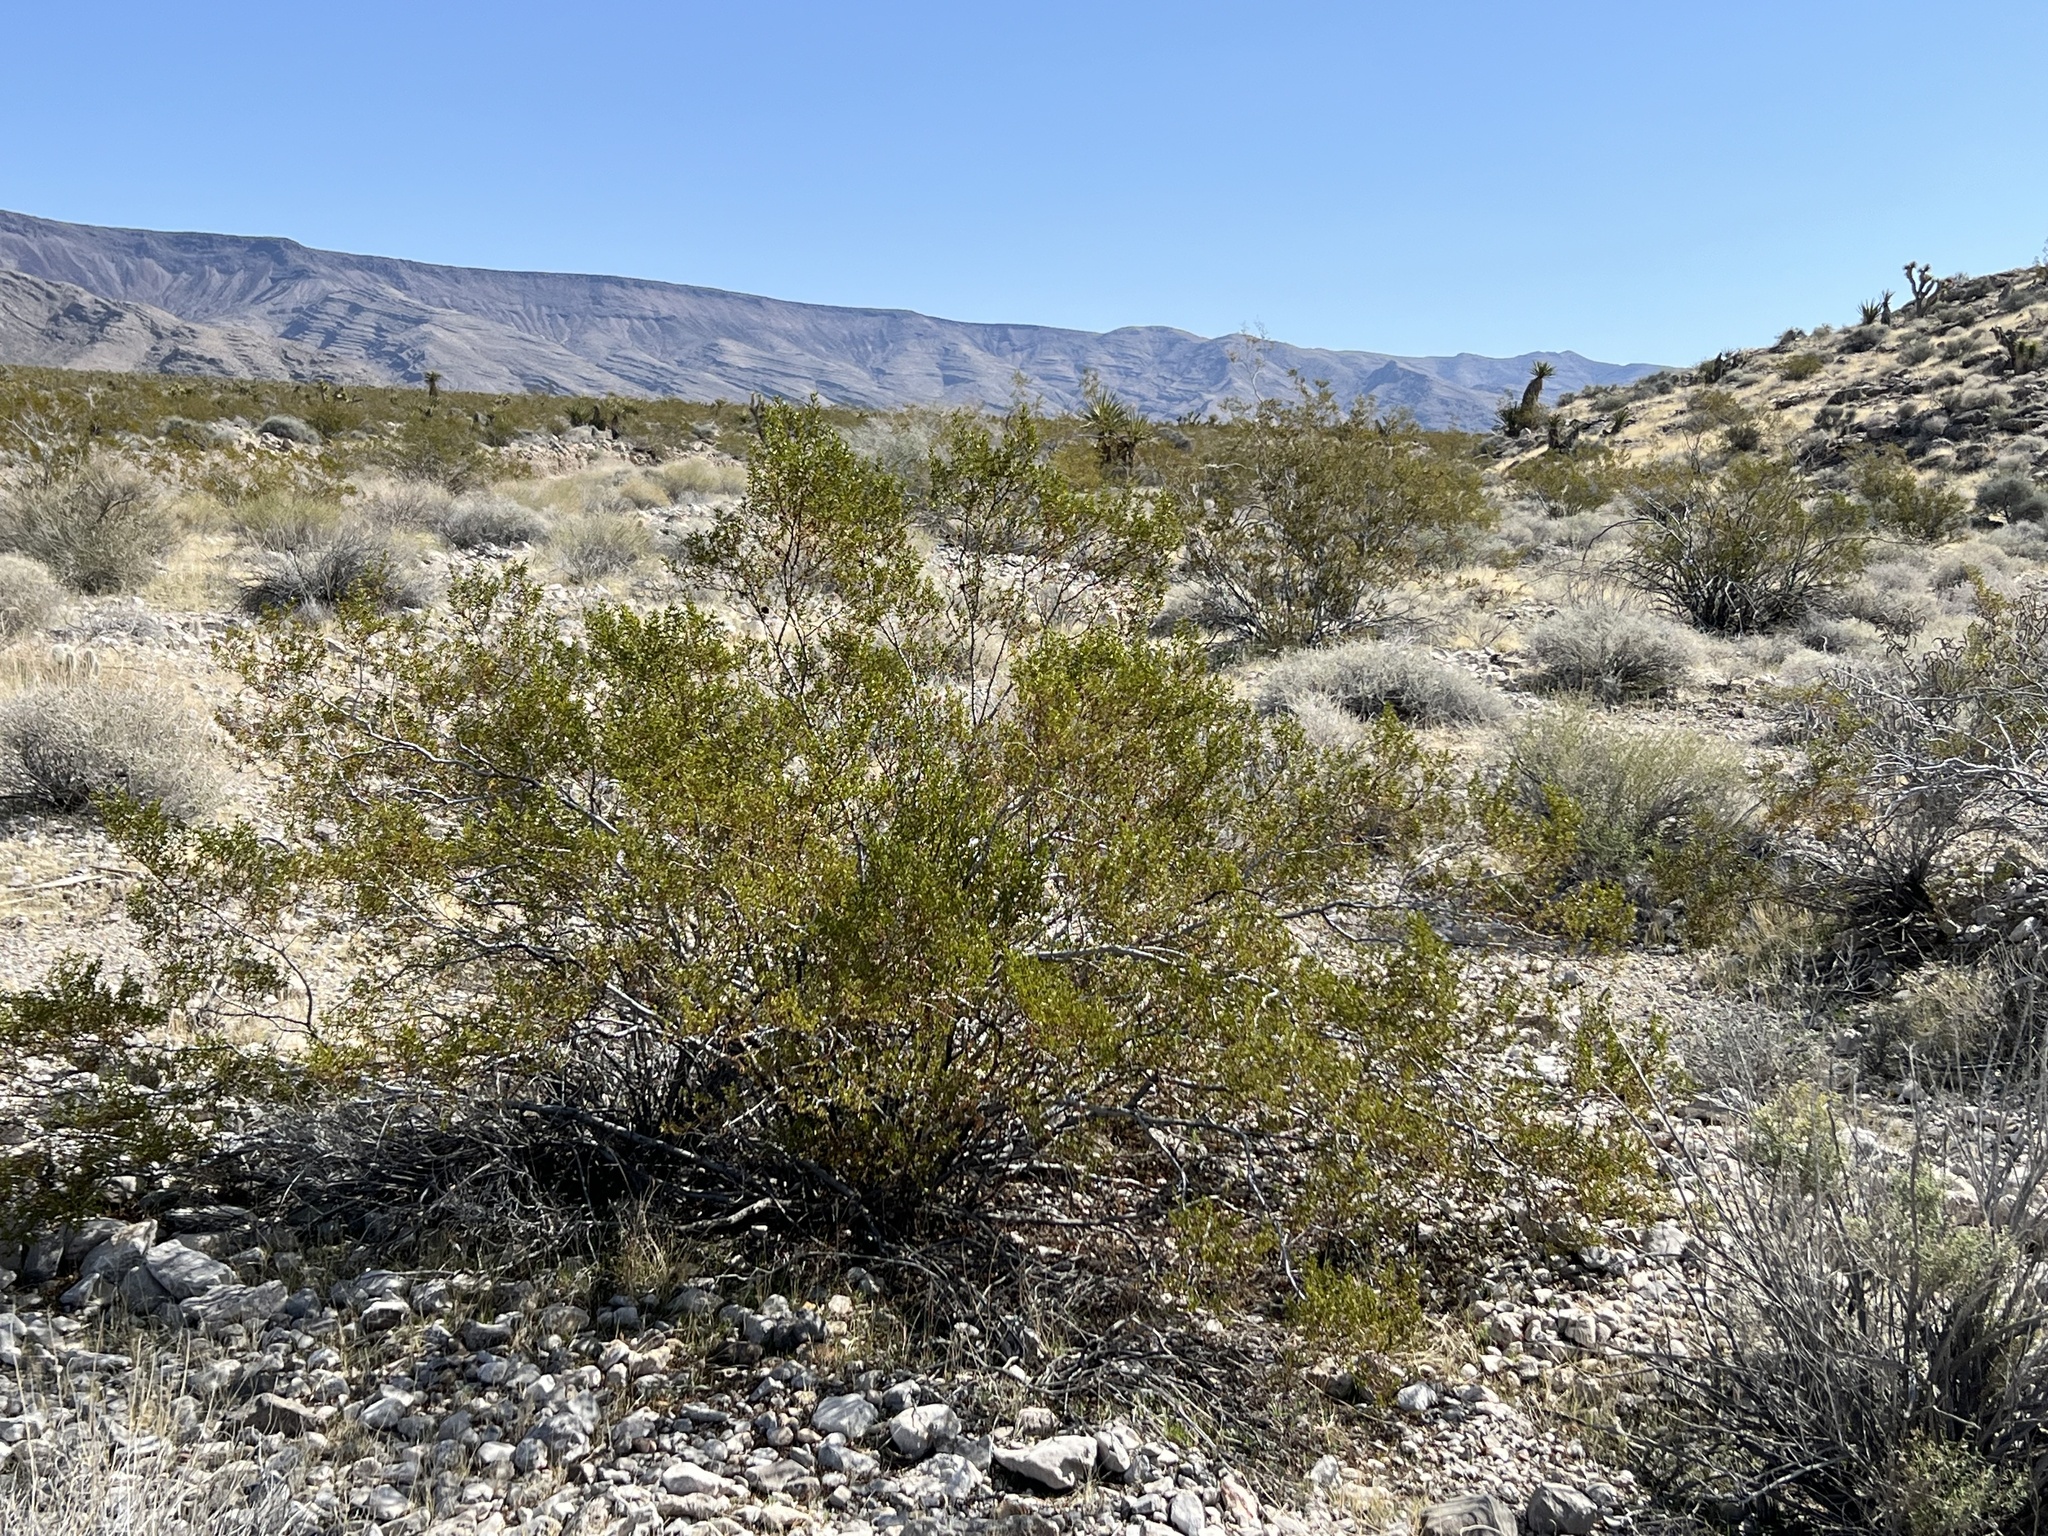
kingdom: Plantae
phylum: Tracheophyta
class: Magnoliopsida
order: Zygophyllales
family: Zygophyllaceae
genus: Larrea
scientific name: Larrea tridentata
